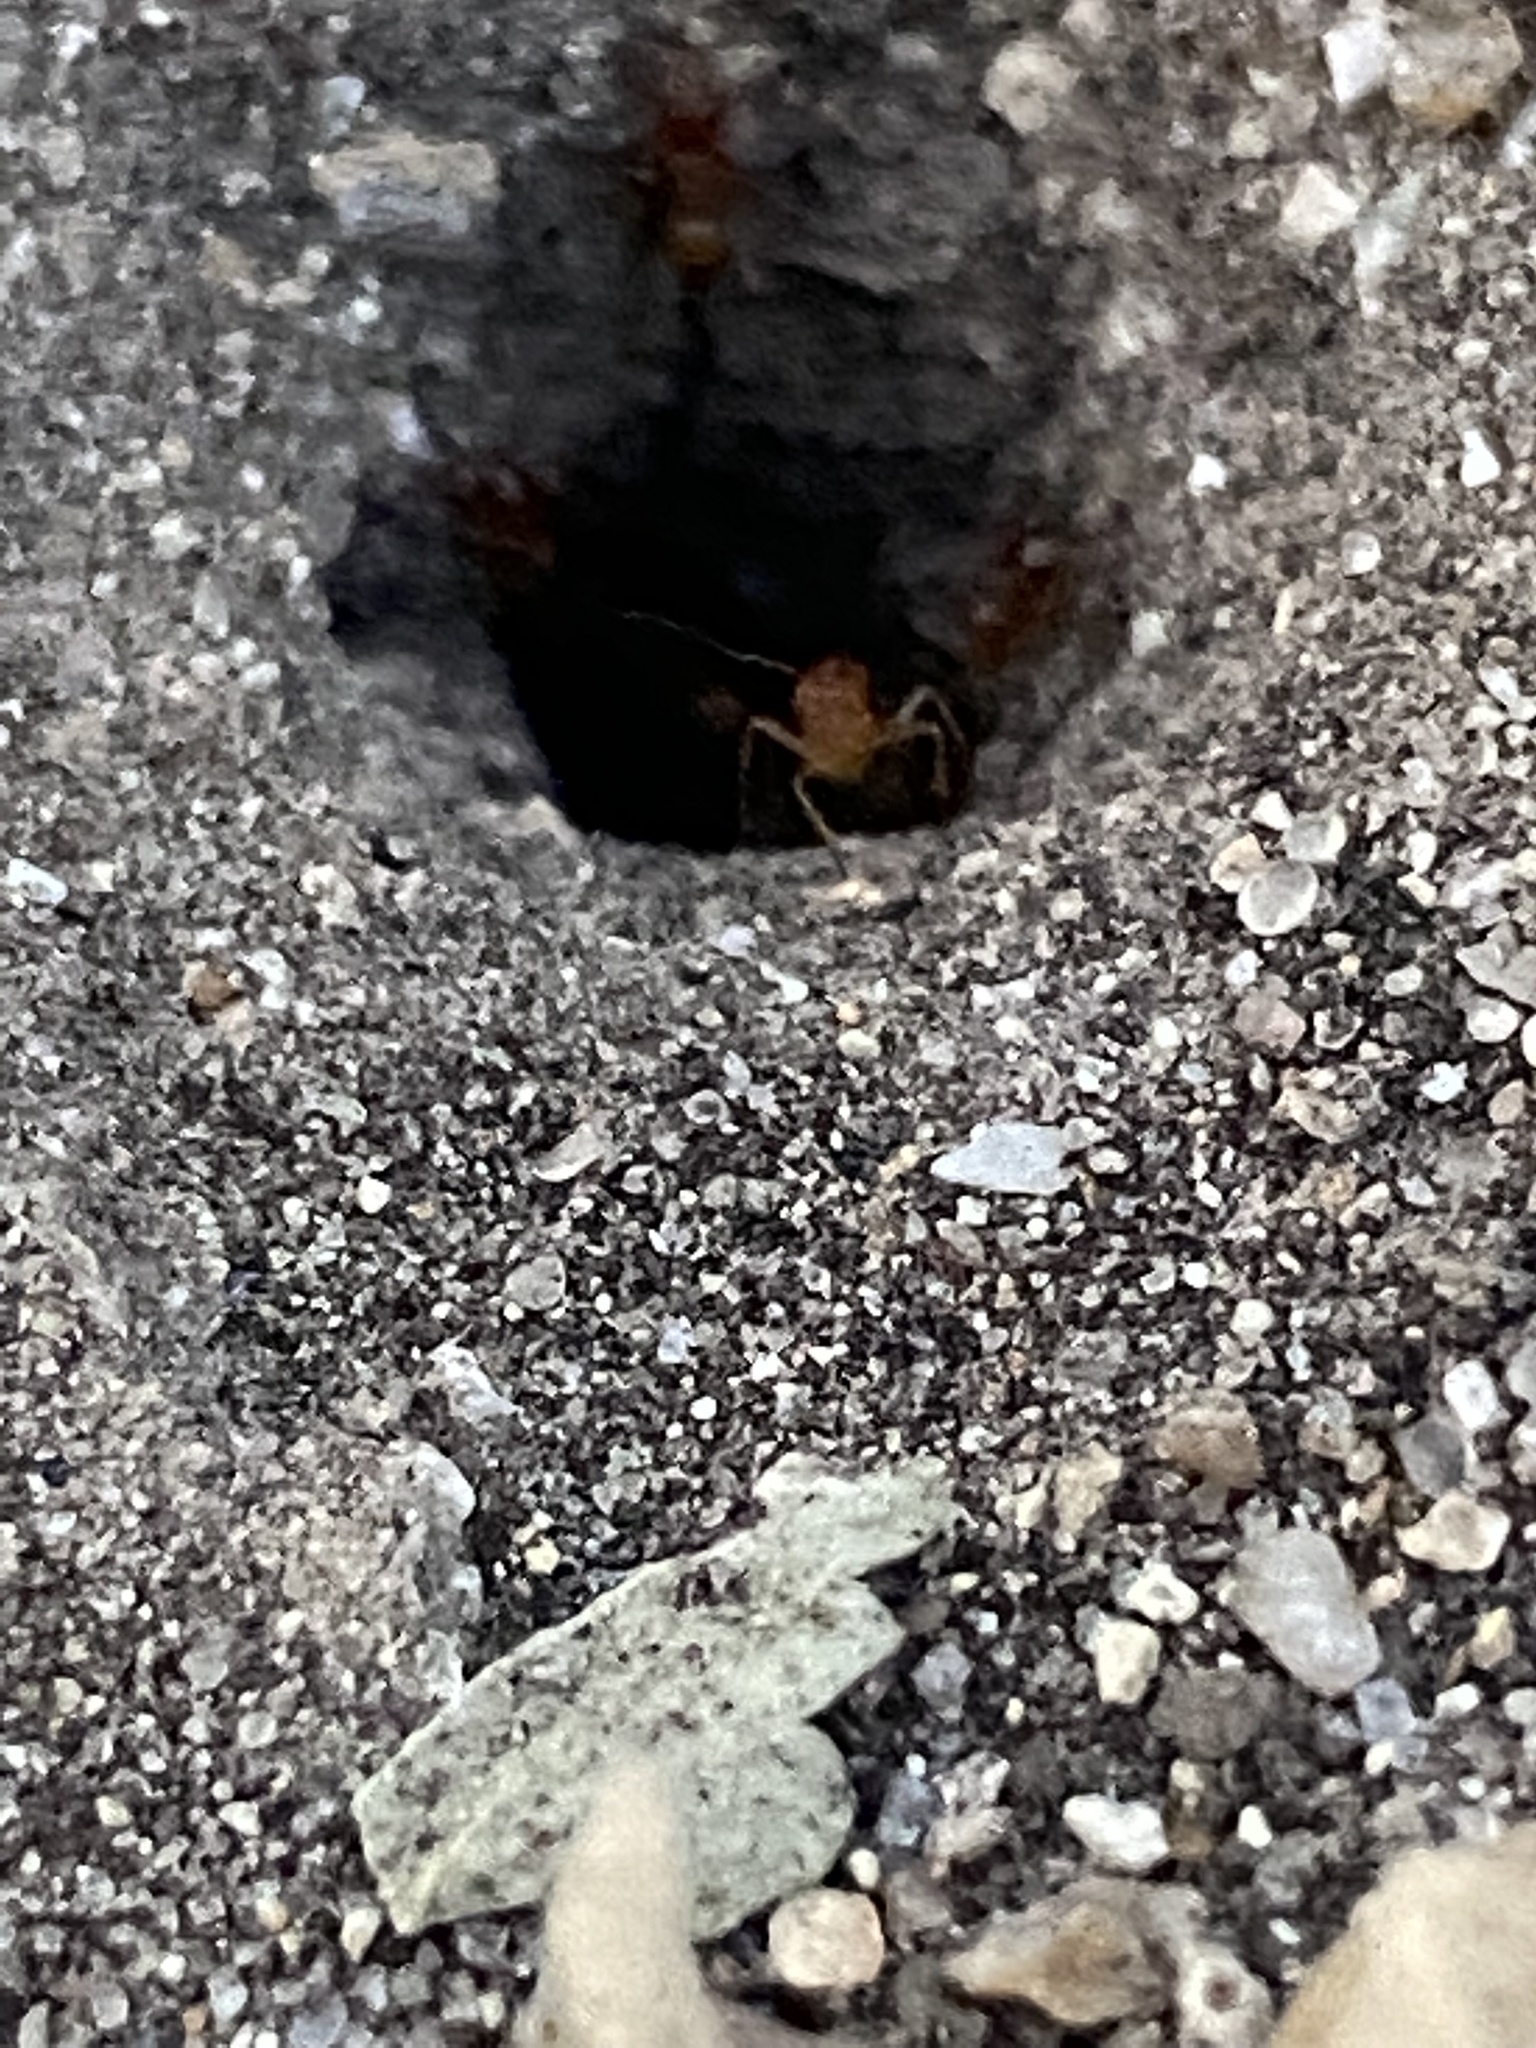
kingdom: Animalia
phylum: Arthropoda
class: Insecta
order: Hymenoptera
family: Formicidae
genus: Dorymyrmex
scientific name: Dorymyrmex flavus
